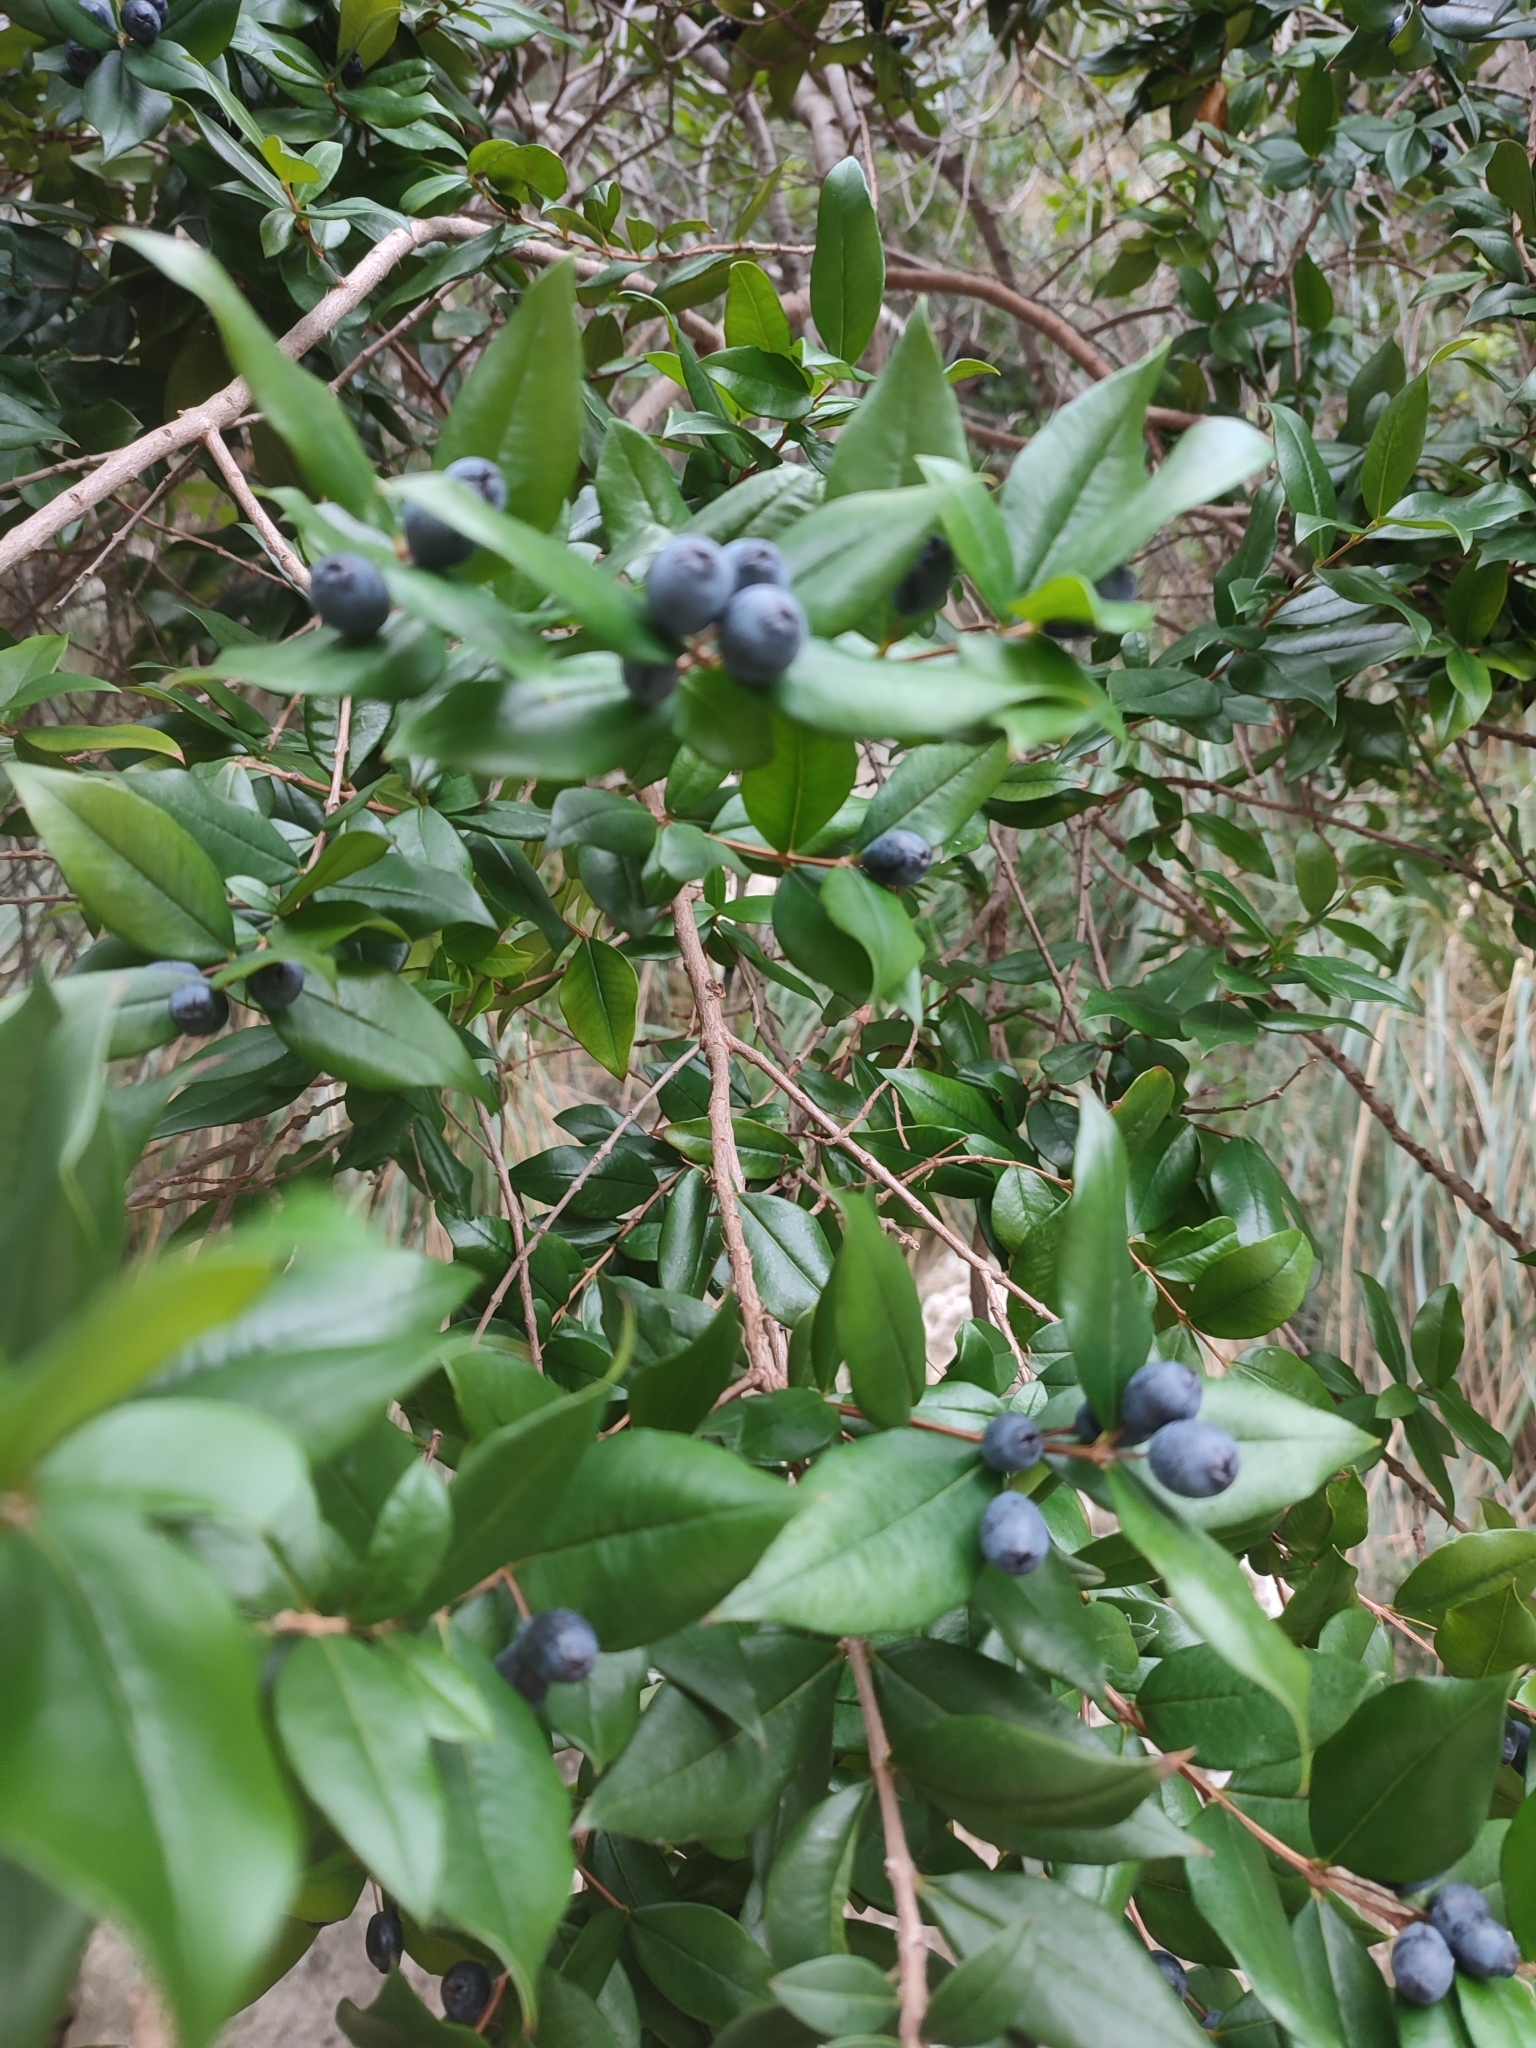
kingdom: Plantae
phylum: Tracheophyta
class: Magnoliopsida
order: Myrtales
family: Myrtaceae
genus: Myrtus
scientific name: Myrtus communis
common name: Myrtle
